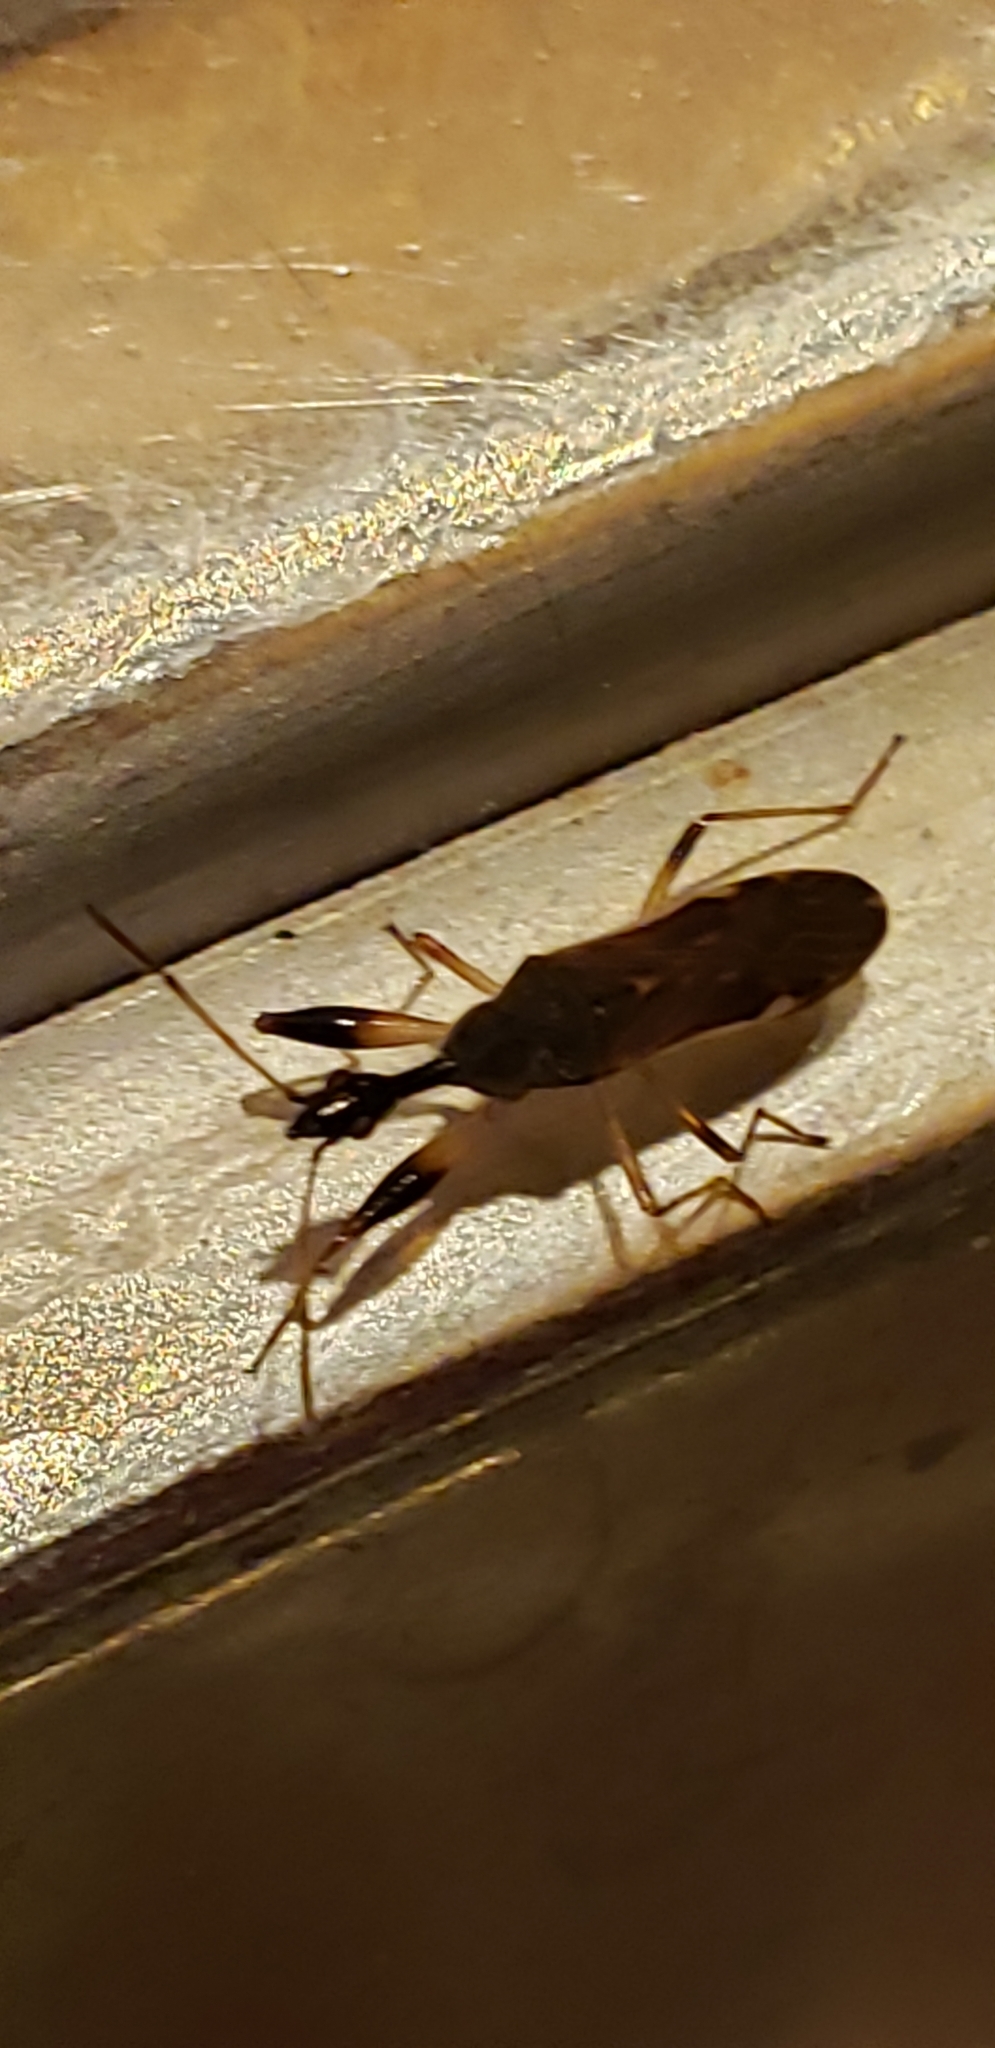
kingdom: Animalia
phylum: Arthropoda
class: Insecta
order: Hemiptera
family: Rhyparochromidae
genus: Myodocha
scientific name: Myodocha serripes
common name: Long-necked seed bug
